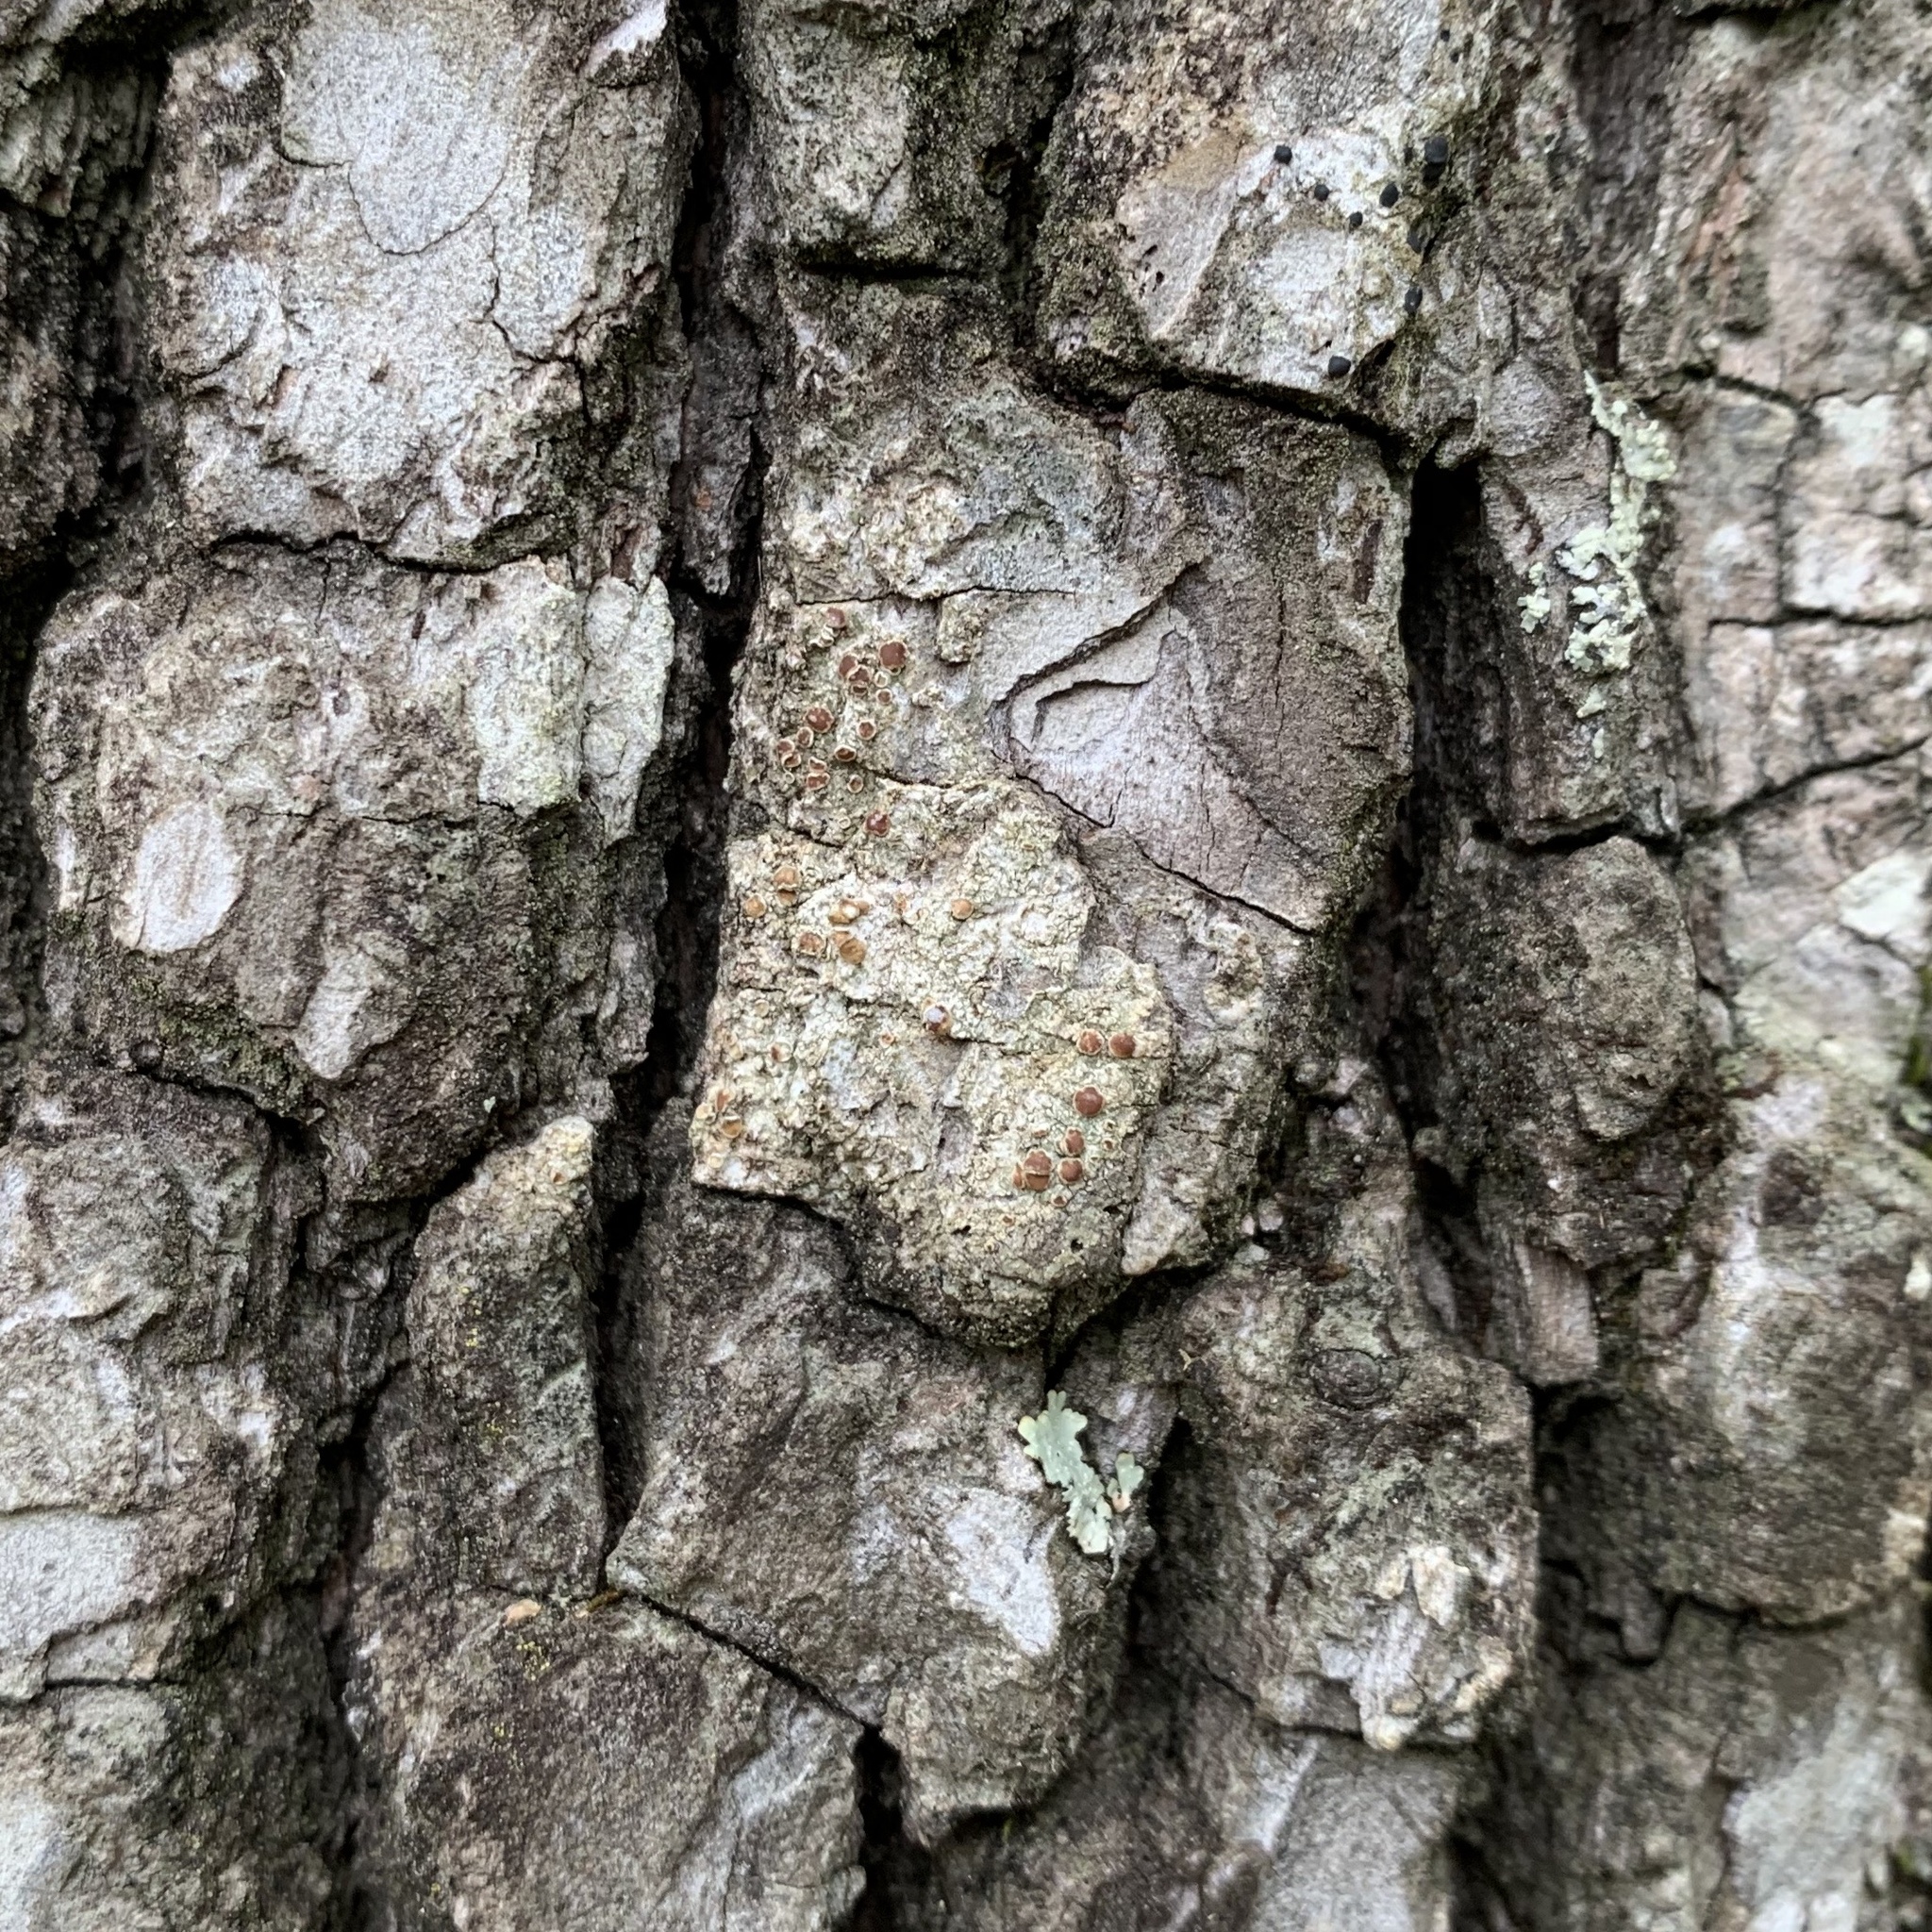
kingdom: Fungi
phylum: Ascomycota
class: Lecanoromycetes
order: Teloschistales
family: Teloschistaceae
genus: Obscuroplaca
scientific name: Obscuroplaca camptidia
